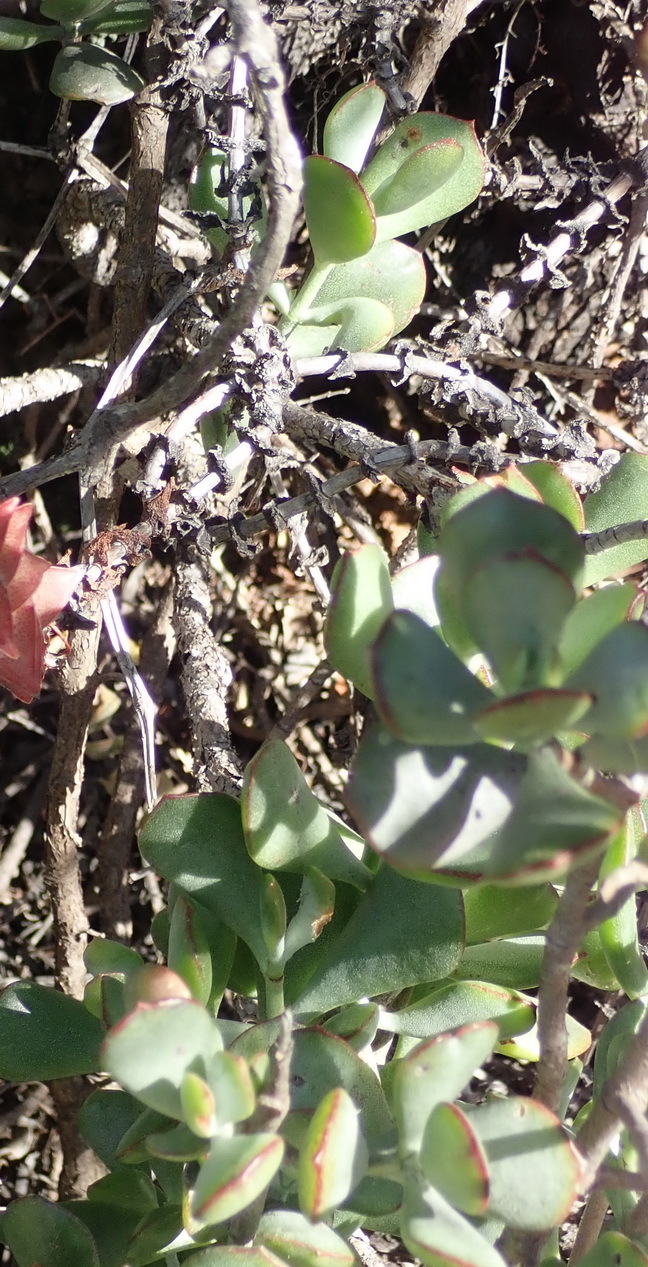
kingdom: Plantae
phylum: Tracheophyta
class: Magnoliopsida
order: Saxifragales
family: Crassulaceae
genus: Cotyledon
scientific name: Cotyledon woodii
